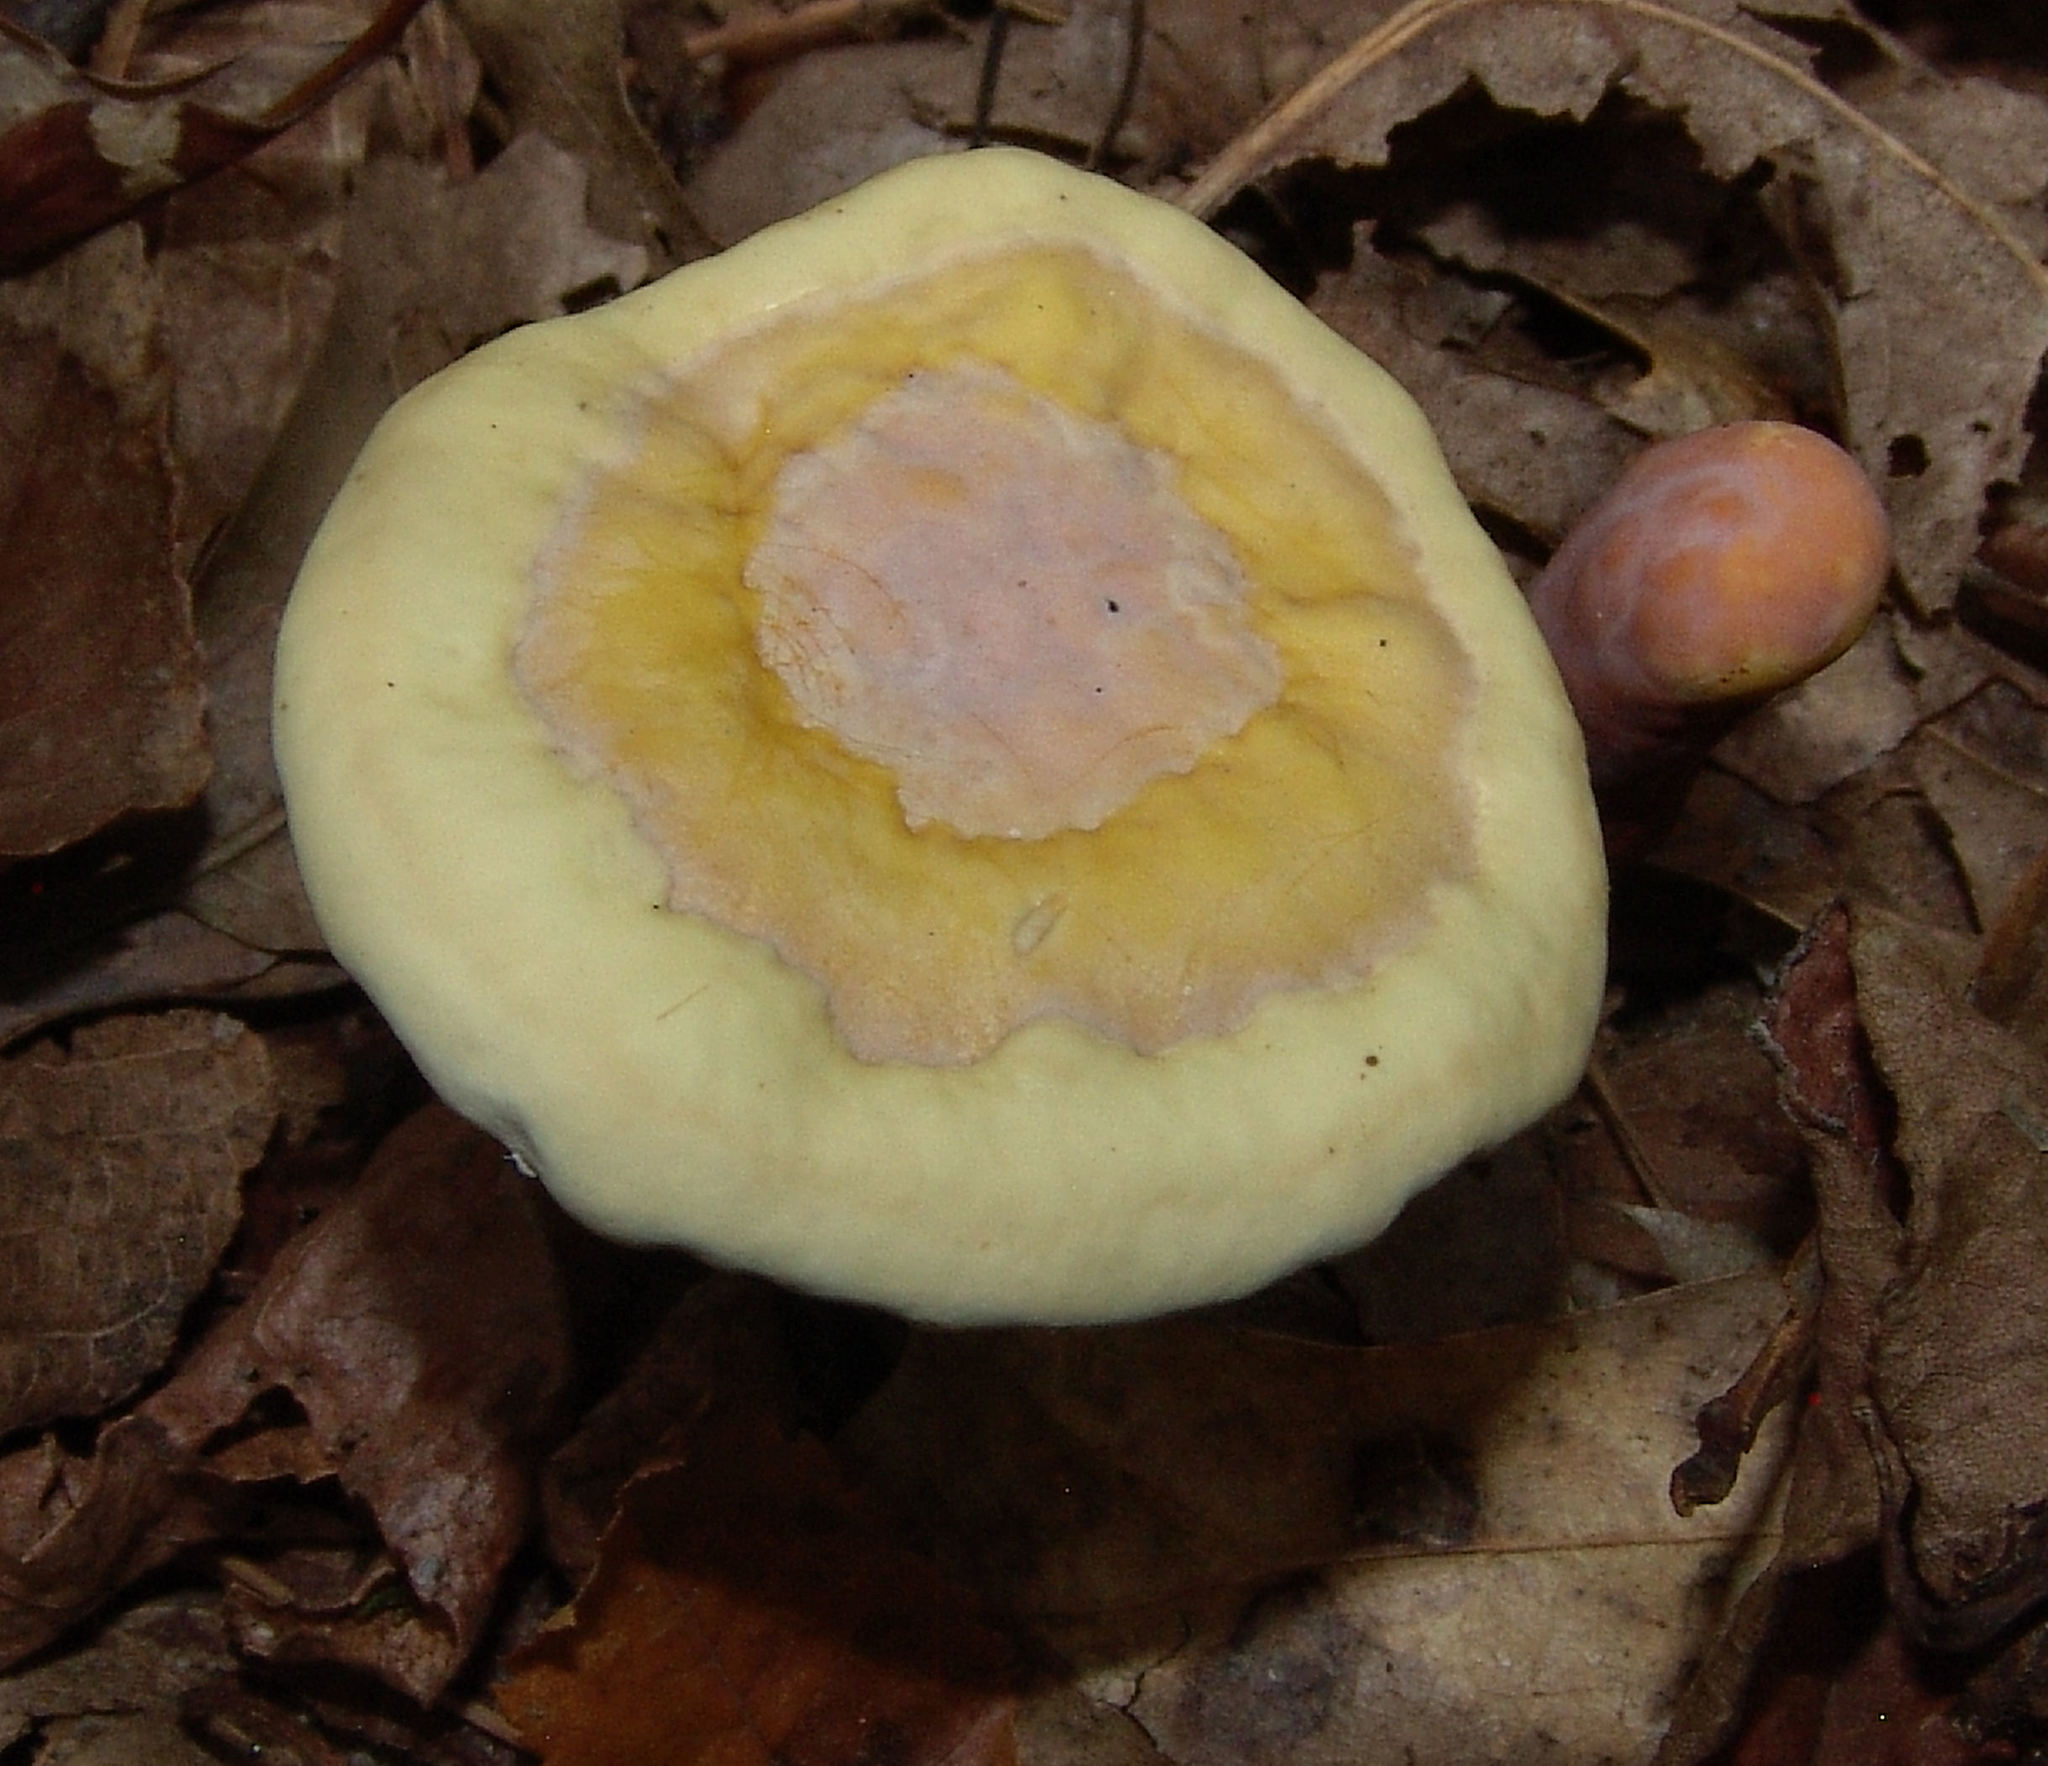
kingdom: Fungi
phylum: Basidiomycota
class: Agaricomycetes
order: Polyporales
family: Polyporaceae
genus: Ganoderma
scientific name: Ganoderma curtisii
